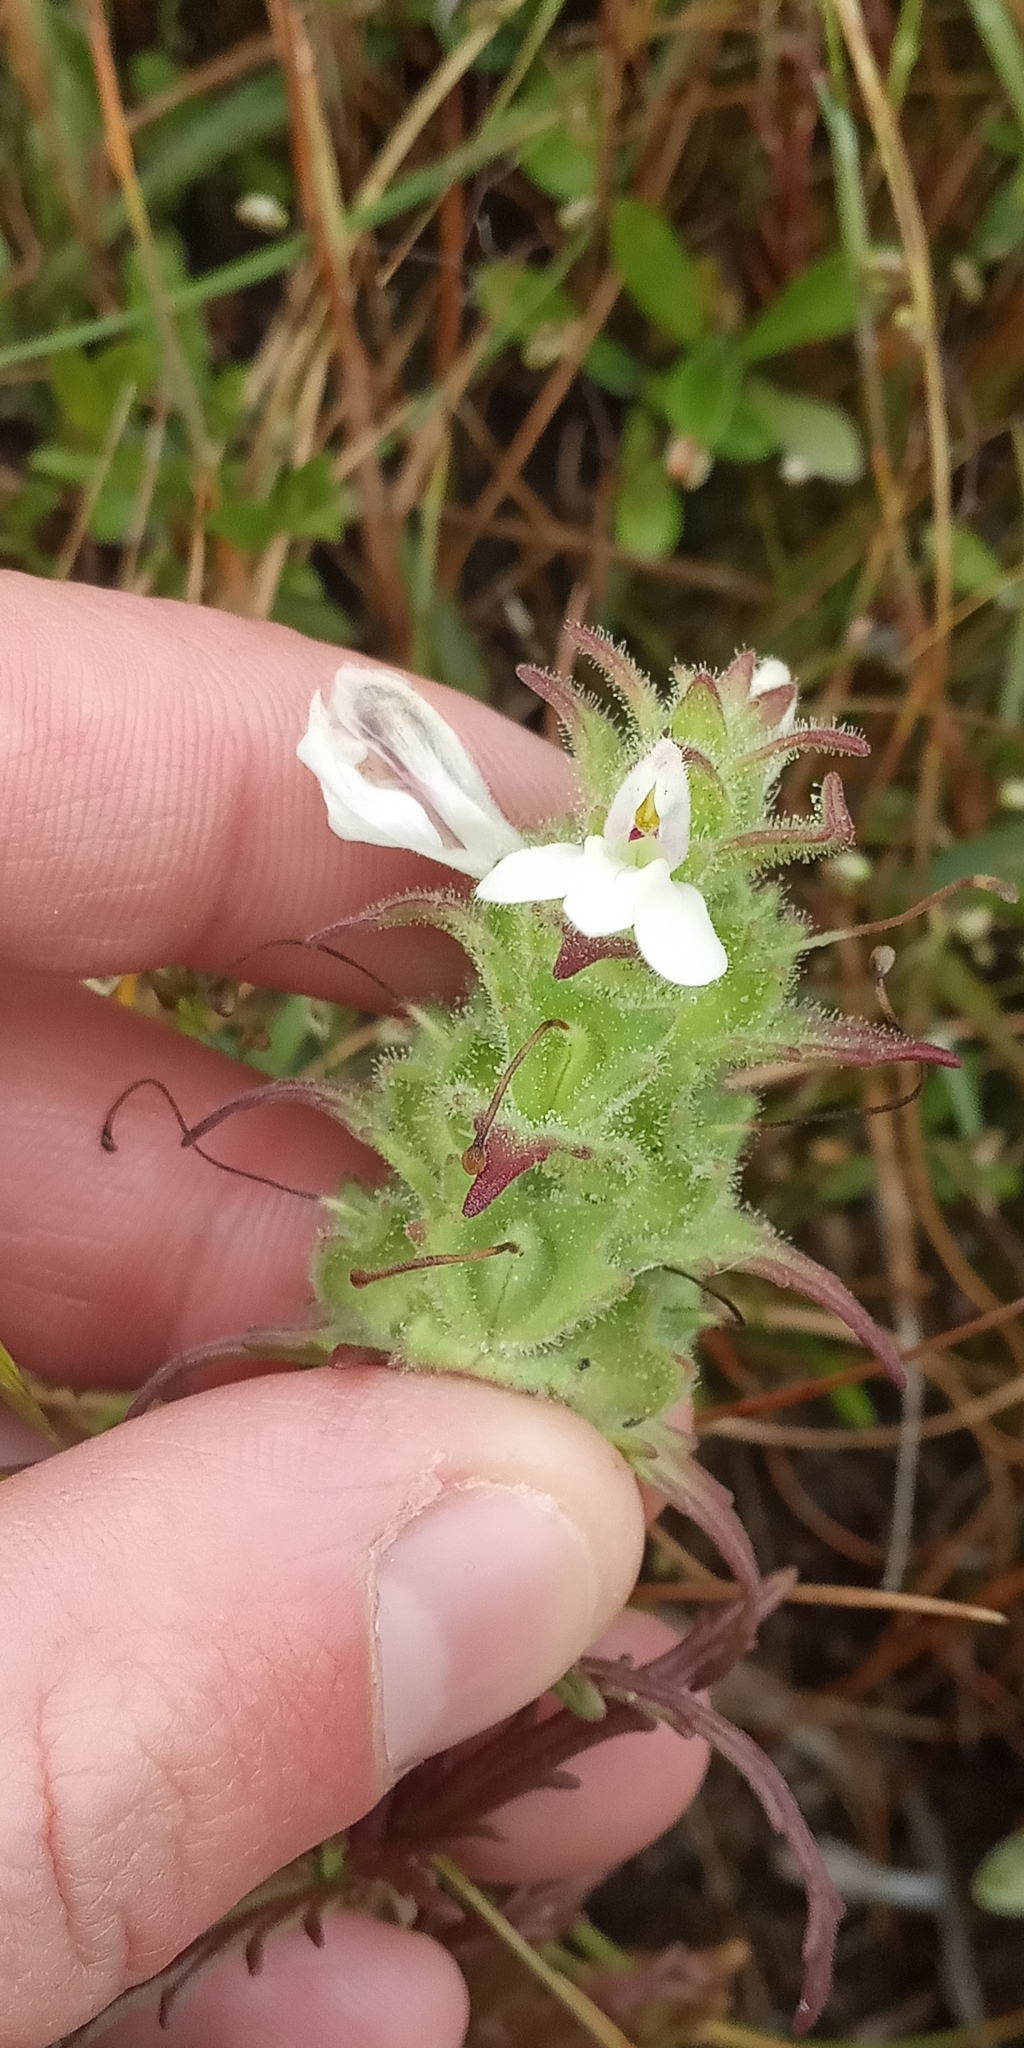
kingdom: Plantae
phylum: Tracheophyta
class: Magnoliopsida
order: Lamiales
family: Orobanchaceae
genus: Bellardia
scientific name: Bellardia trixago
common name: Mediterranean lineseed
